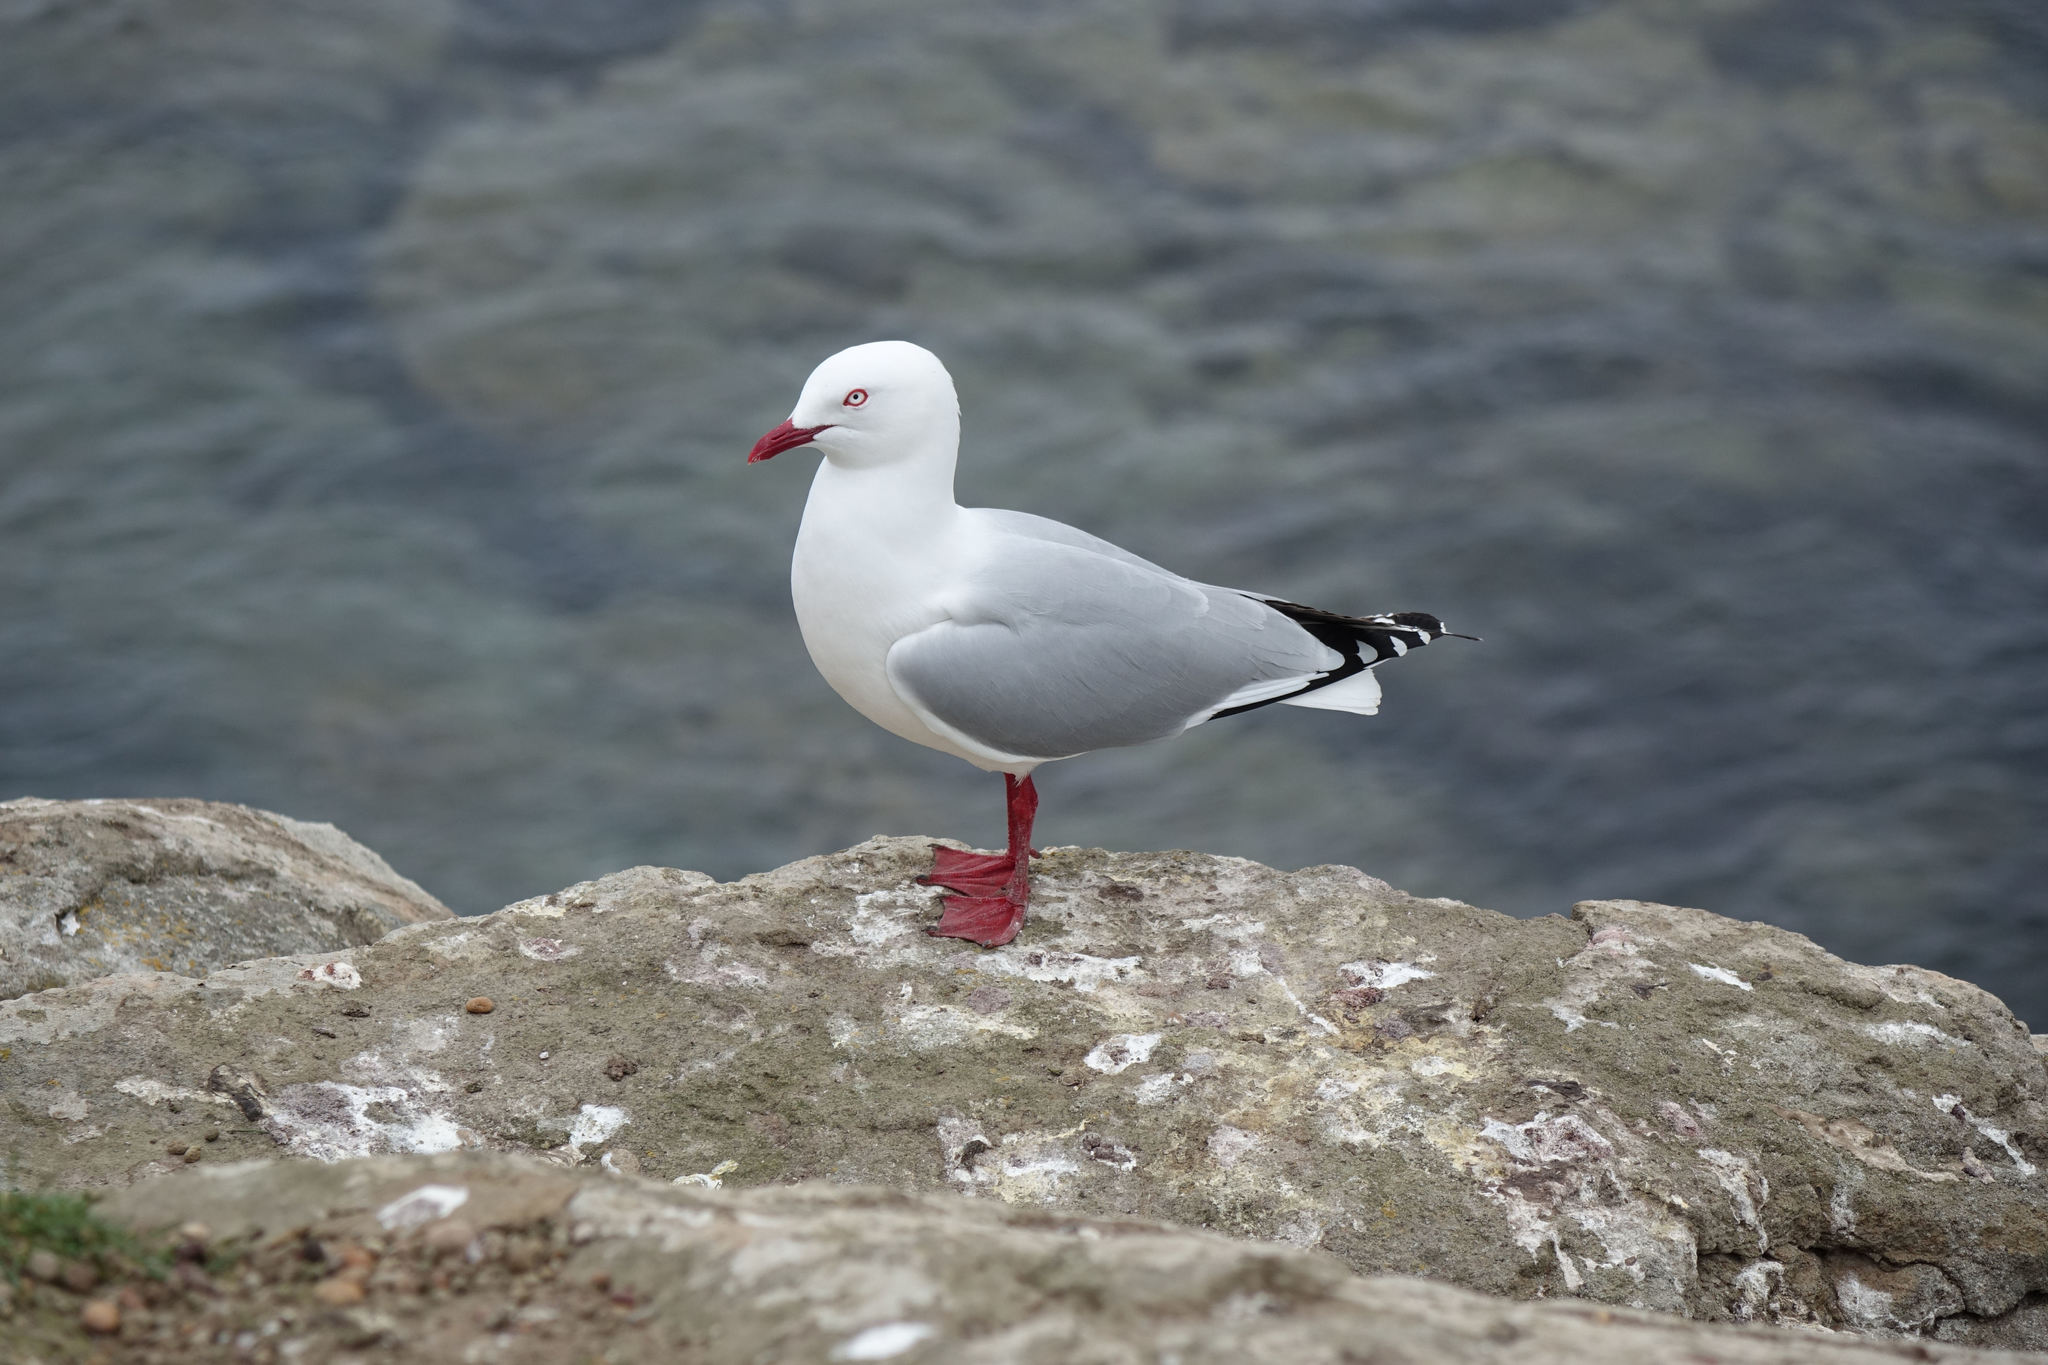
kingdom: Animalia
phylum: Chordata
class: Aves
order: Charadriiformes
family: Laridae
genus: Chroicocephalus
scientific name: Chroicocephalus novaehollandiae
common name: Silver gull
